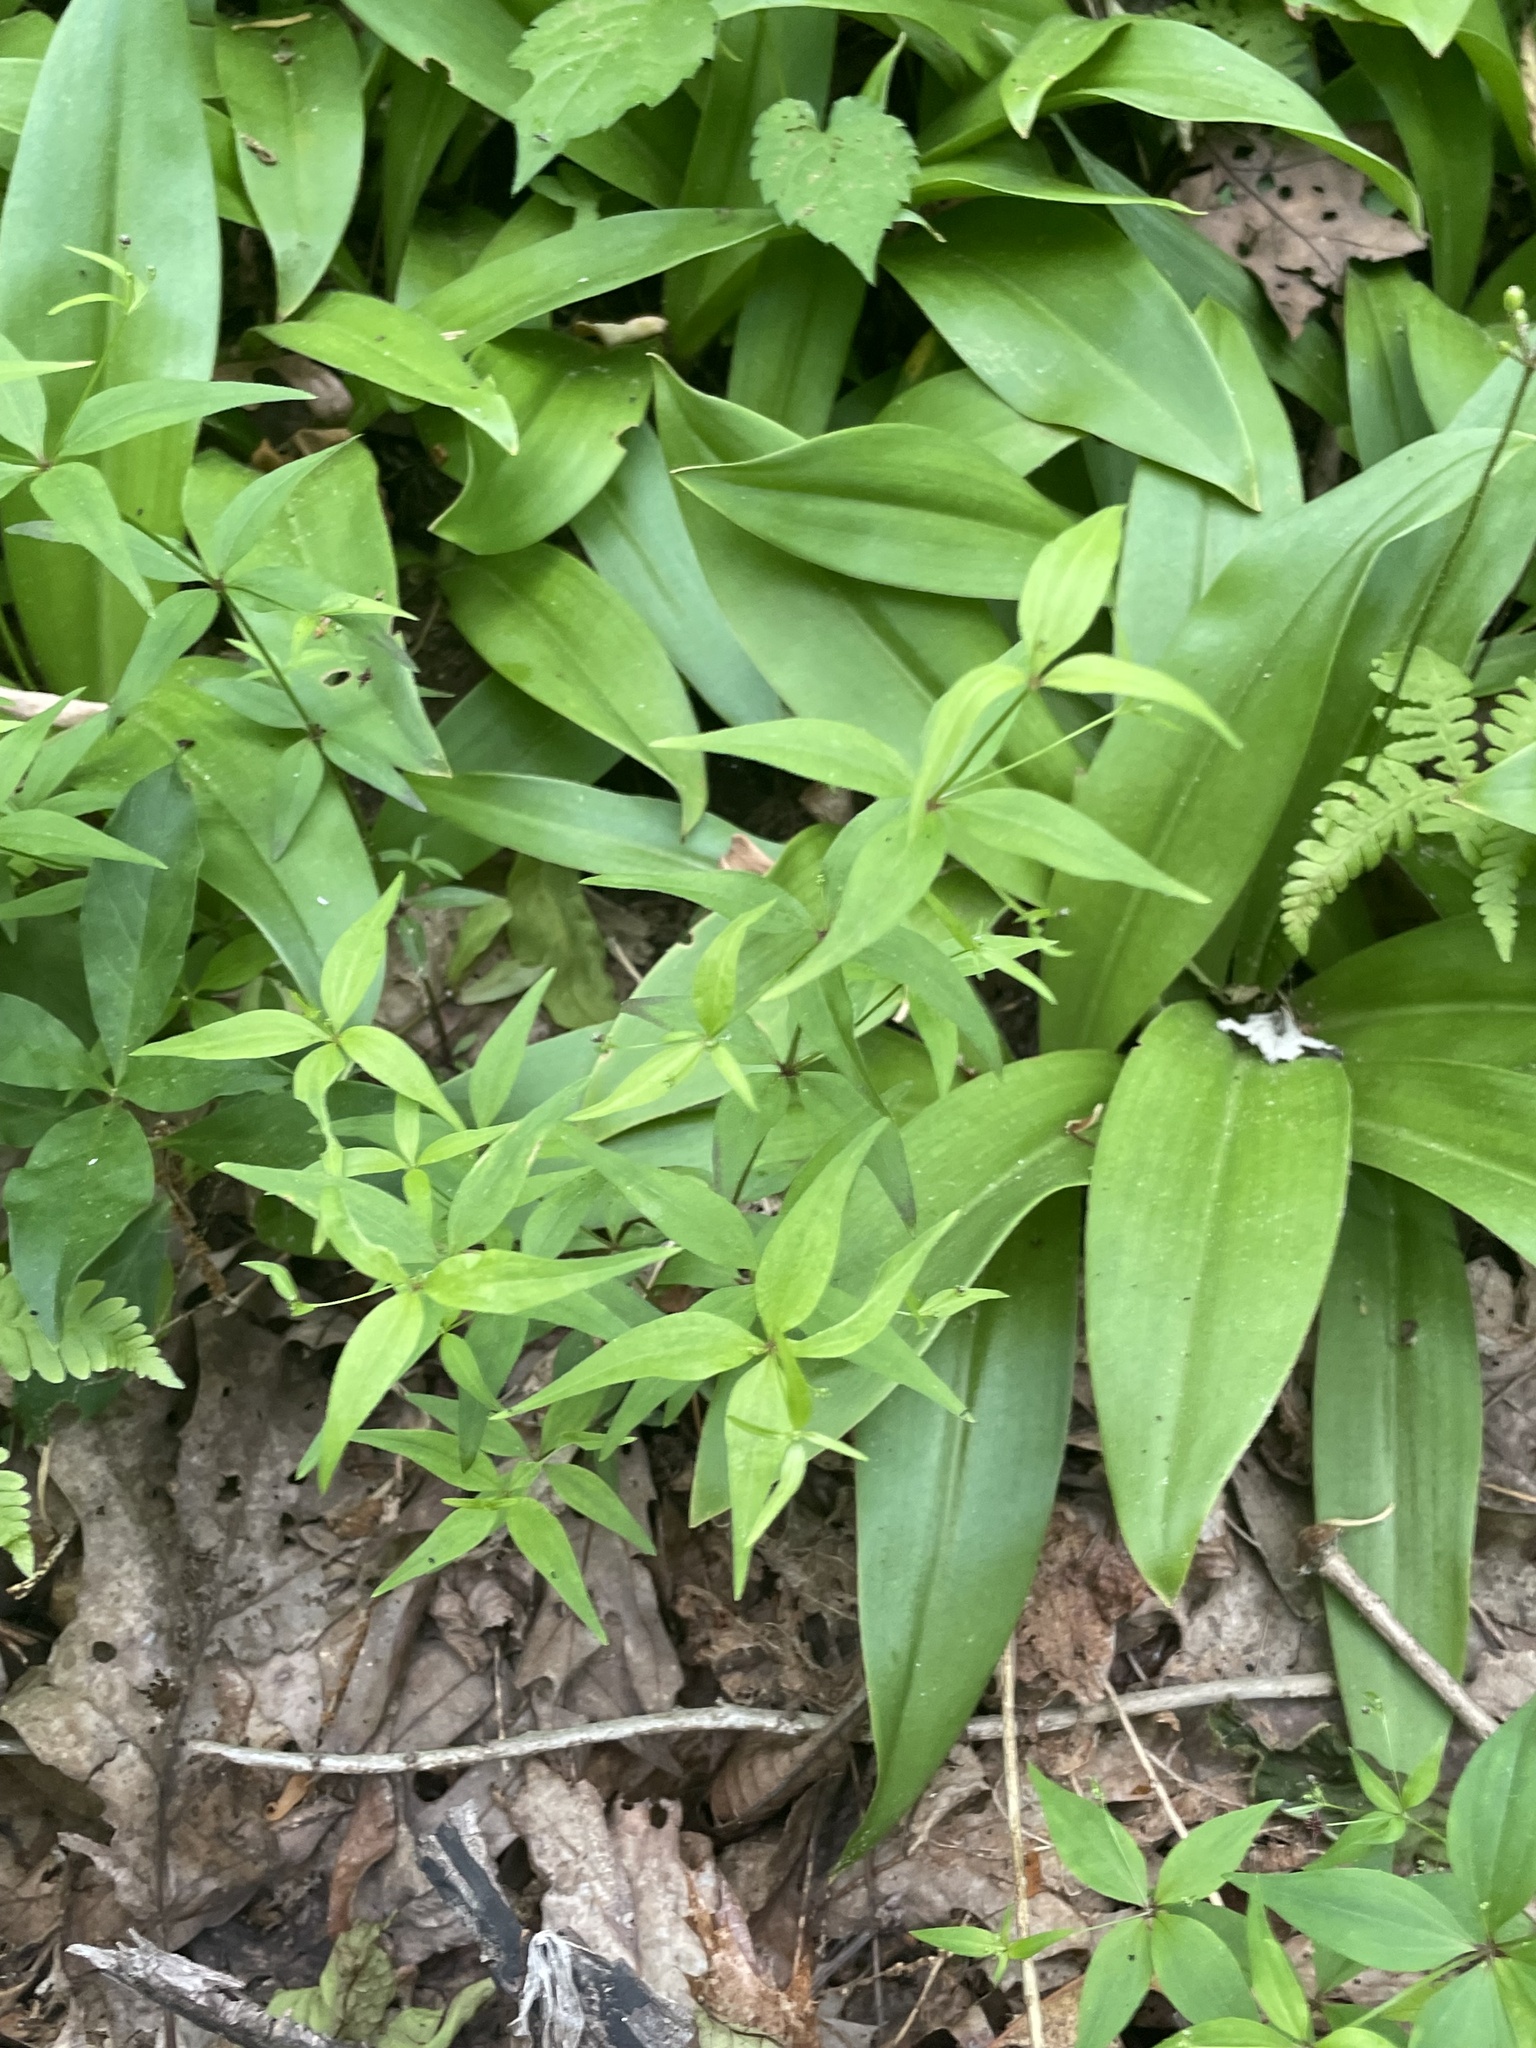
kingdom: Plantae
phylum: Tracheophyta
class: Magnoliopsida
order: Gentianales
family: Rubiaceae
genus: Galium
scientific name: Galium latifolium
